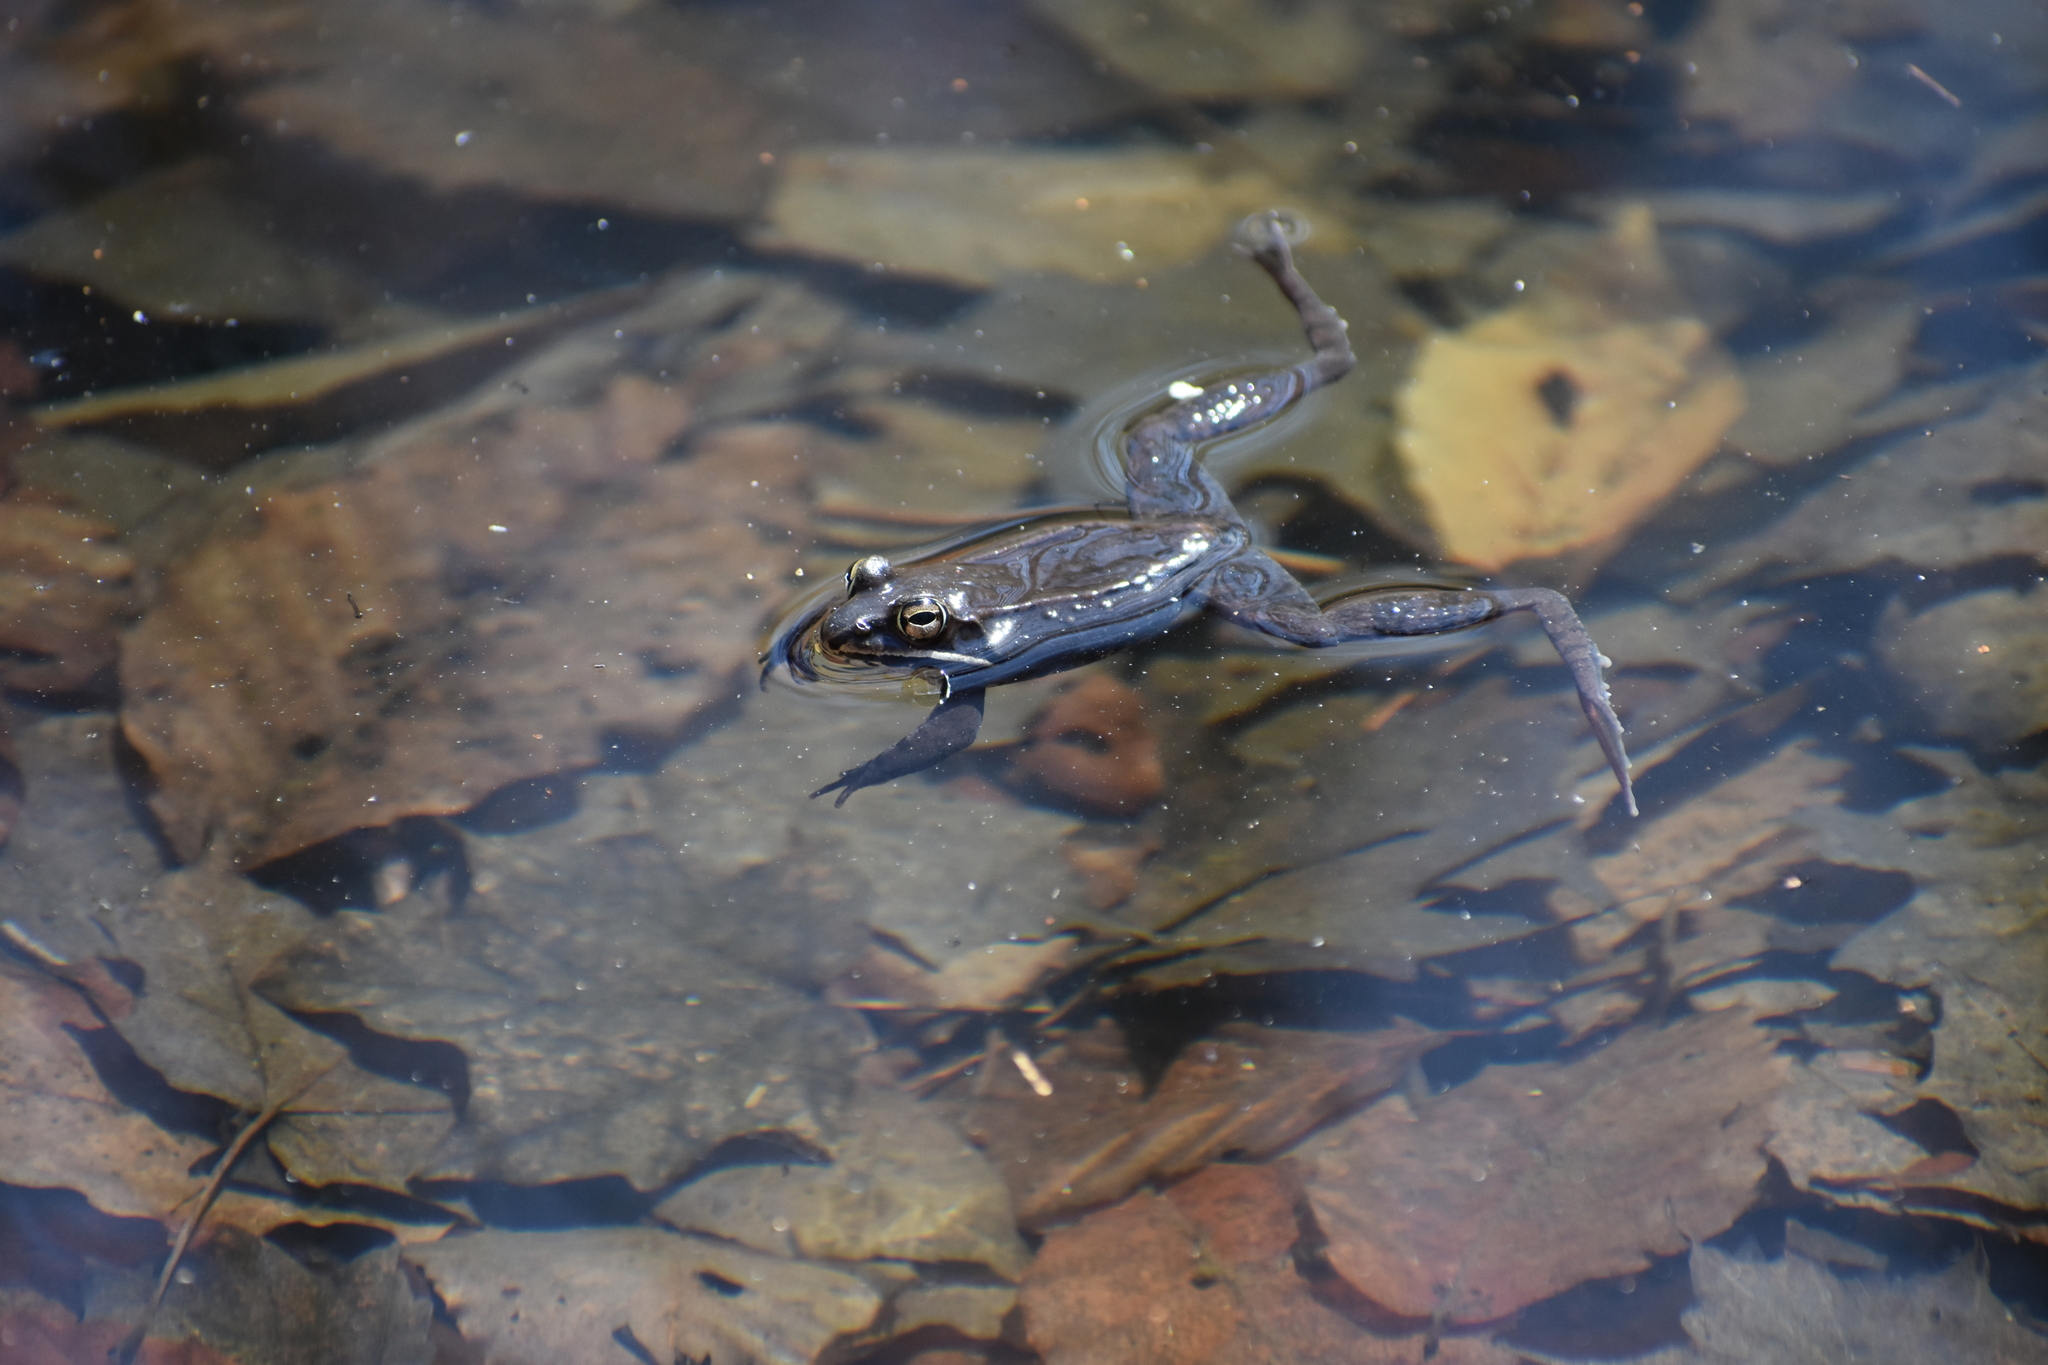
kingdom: Animalia
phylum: Chordata
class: Amphibia
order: Anura
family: Ranidae
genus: Lithobates
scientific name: Lithobates sylvaticus
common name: Wood frog
